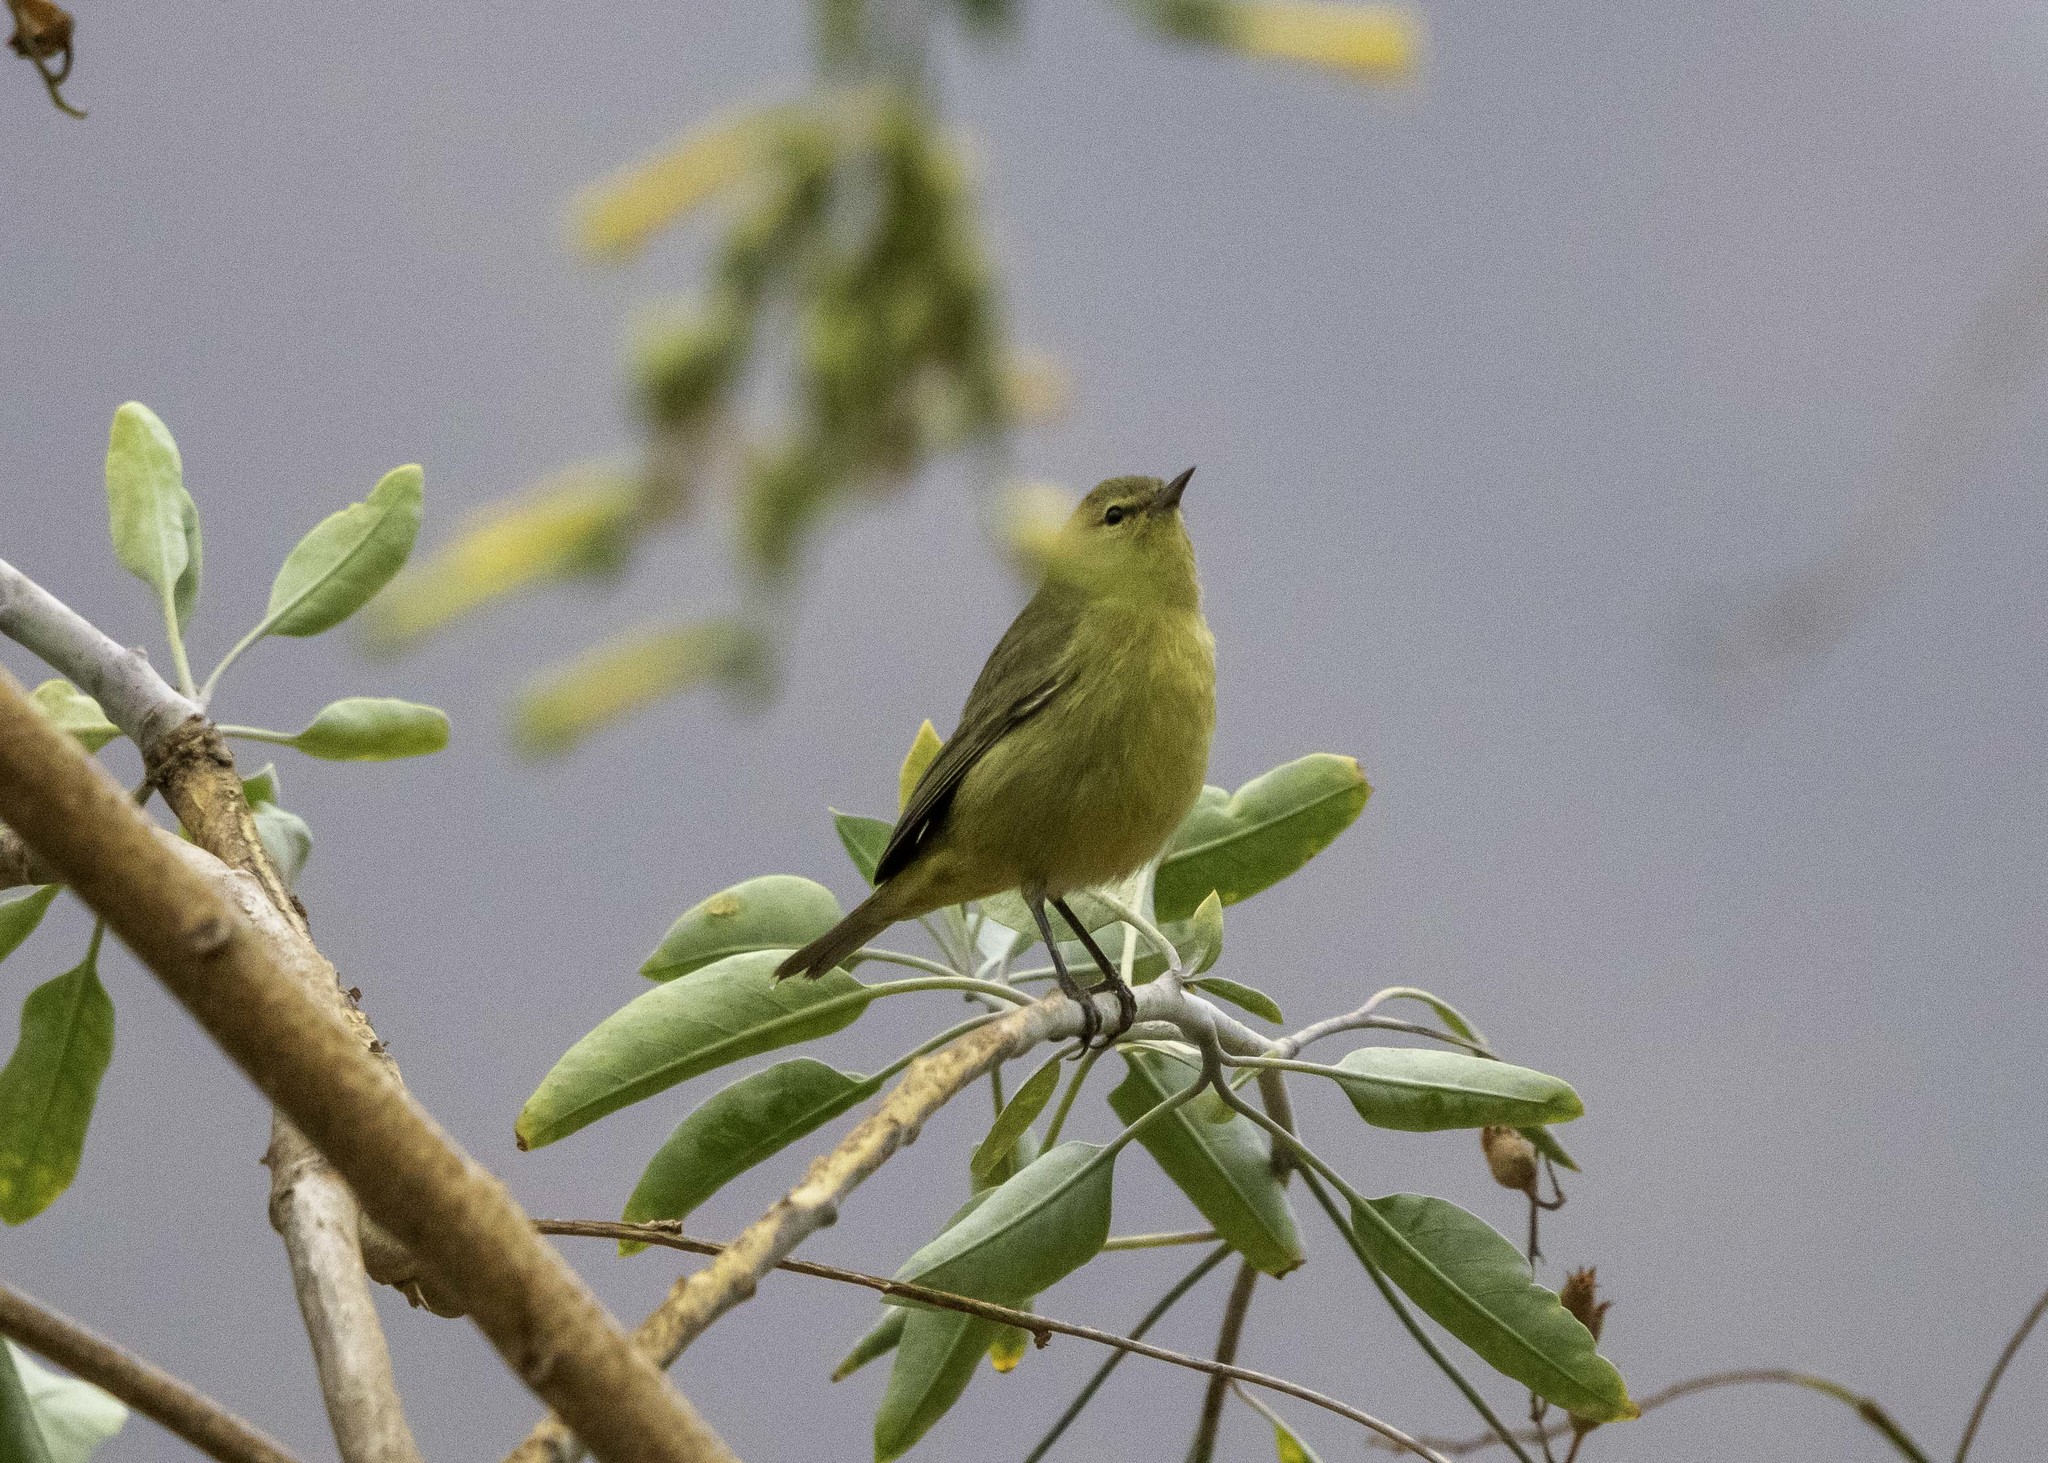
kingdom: Animalia
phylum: Chordata
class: Aves
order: Passeriformes
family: Parulidae
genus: Leiothlypis
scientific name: Leiothlypis celata
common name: Orange-crowned warbler
